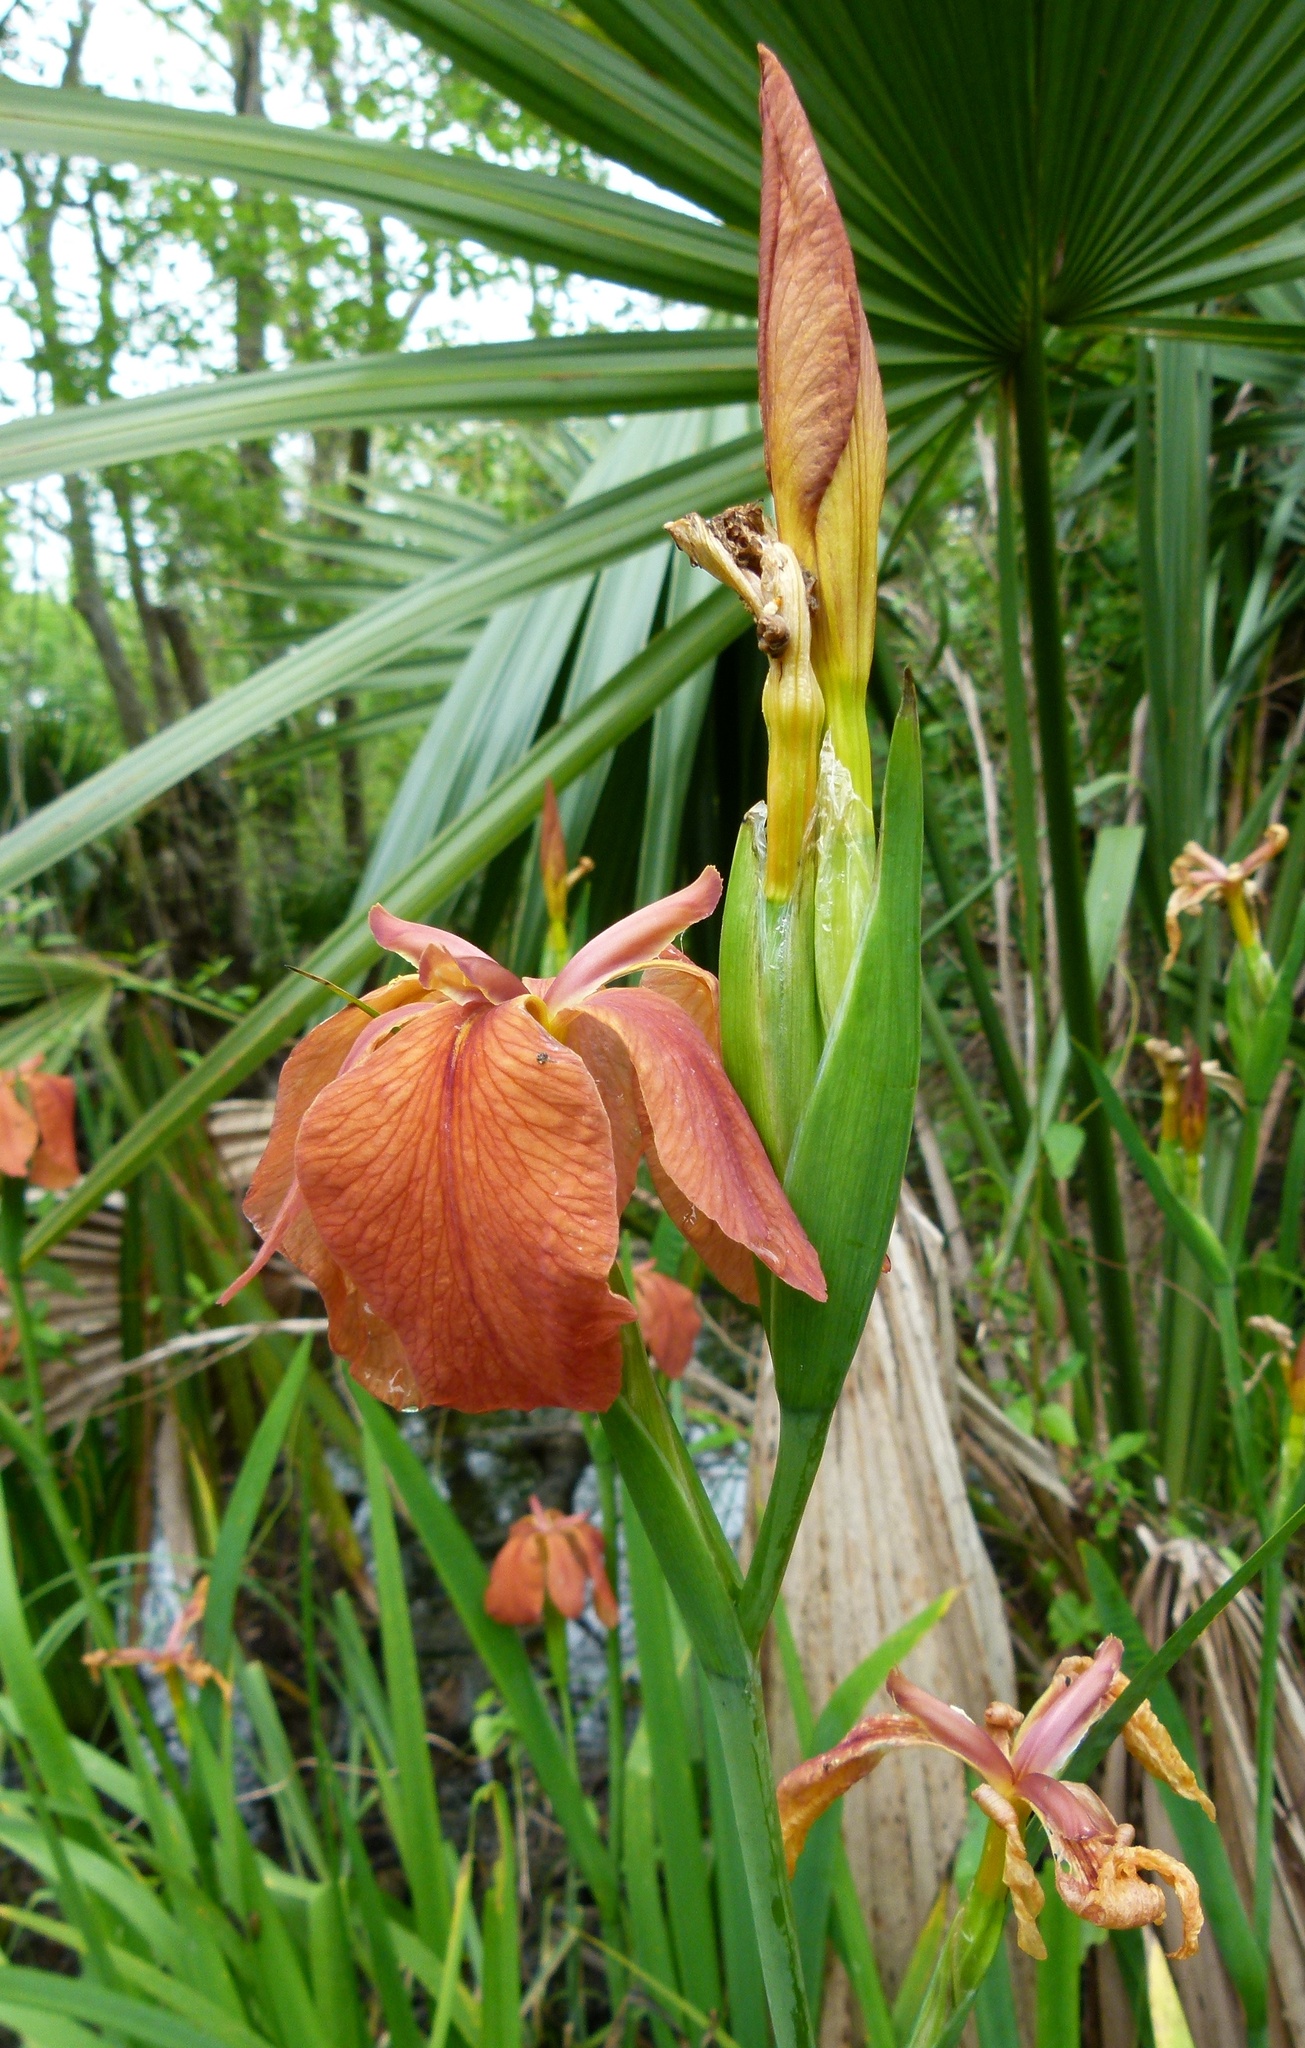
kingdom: Plantae
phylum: Tracheophyta
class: Liliopsida
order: Asparagales
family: Iridaceae
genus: Iris
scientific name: Iris fulva
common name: Copper iris
